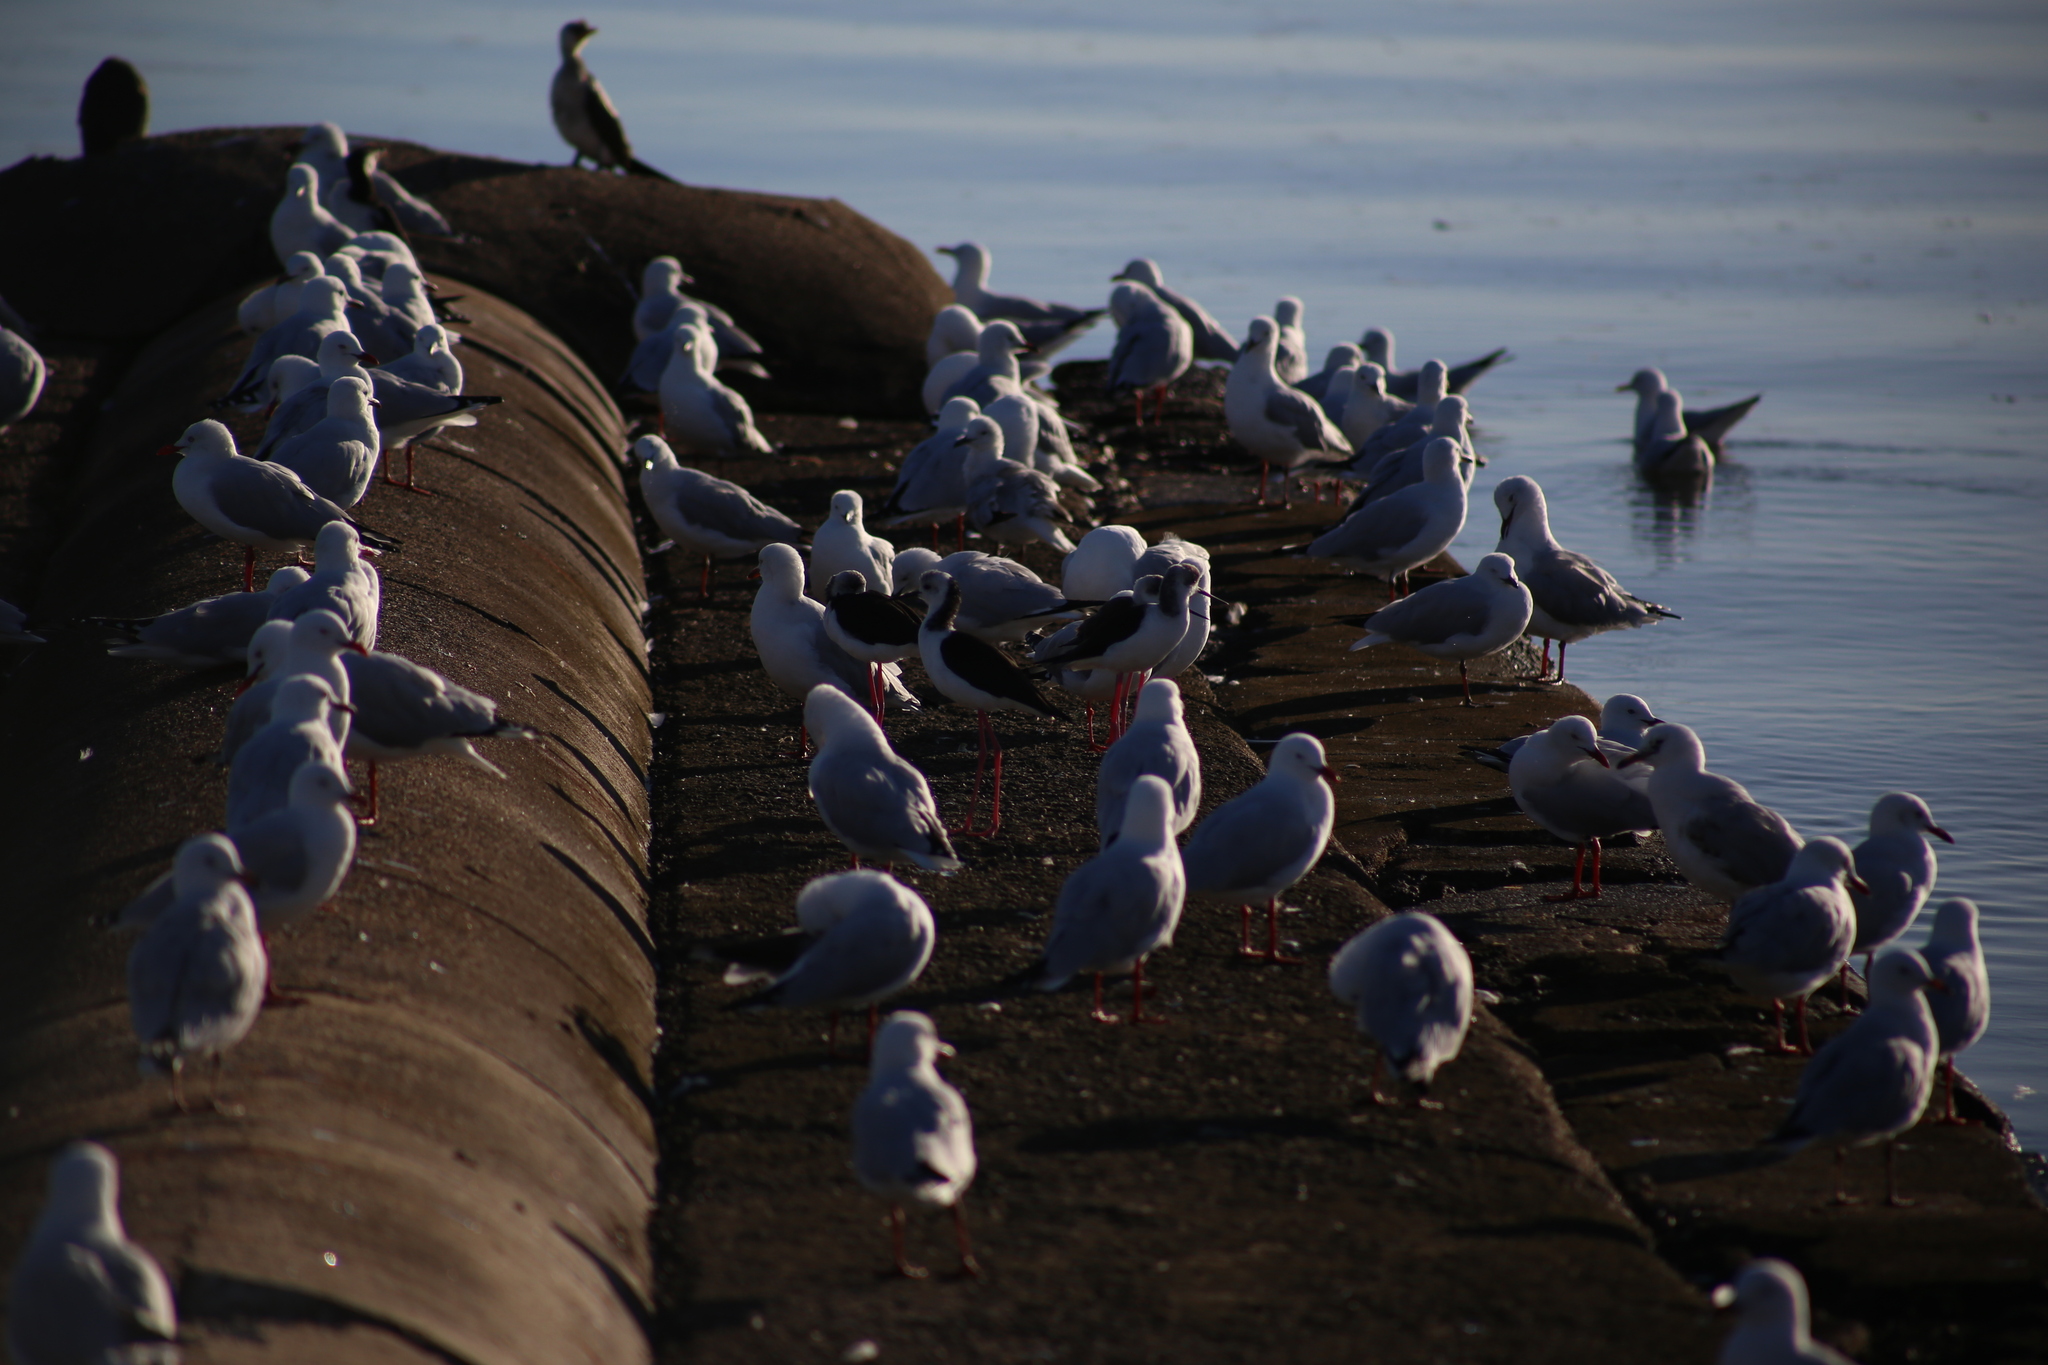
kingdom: Animalia
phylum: Chordata
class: Aves
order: Charadriiformes
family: Recurvirostridae
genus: Himantopus
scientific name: Himantopus leucocephalus
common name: White-headed stilt
